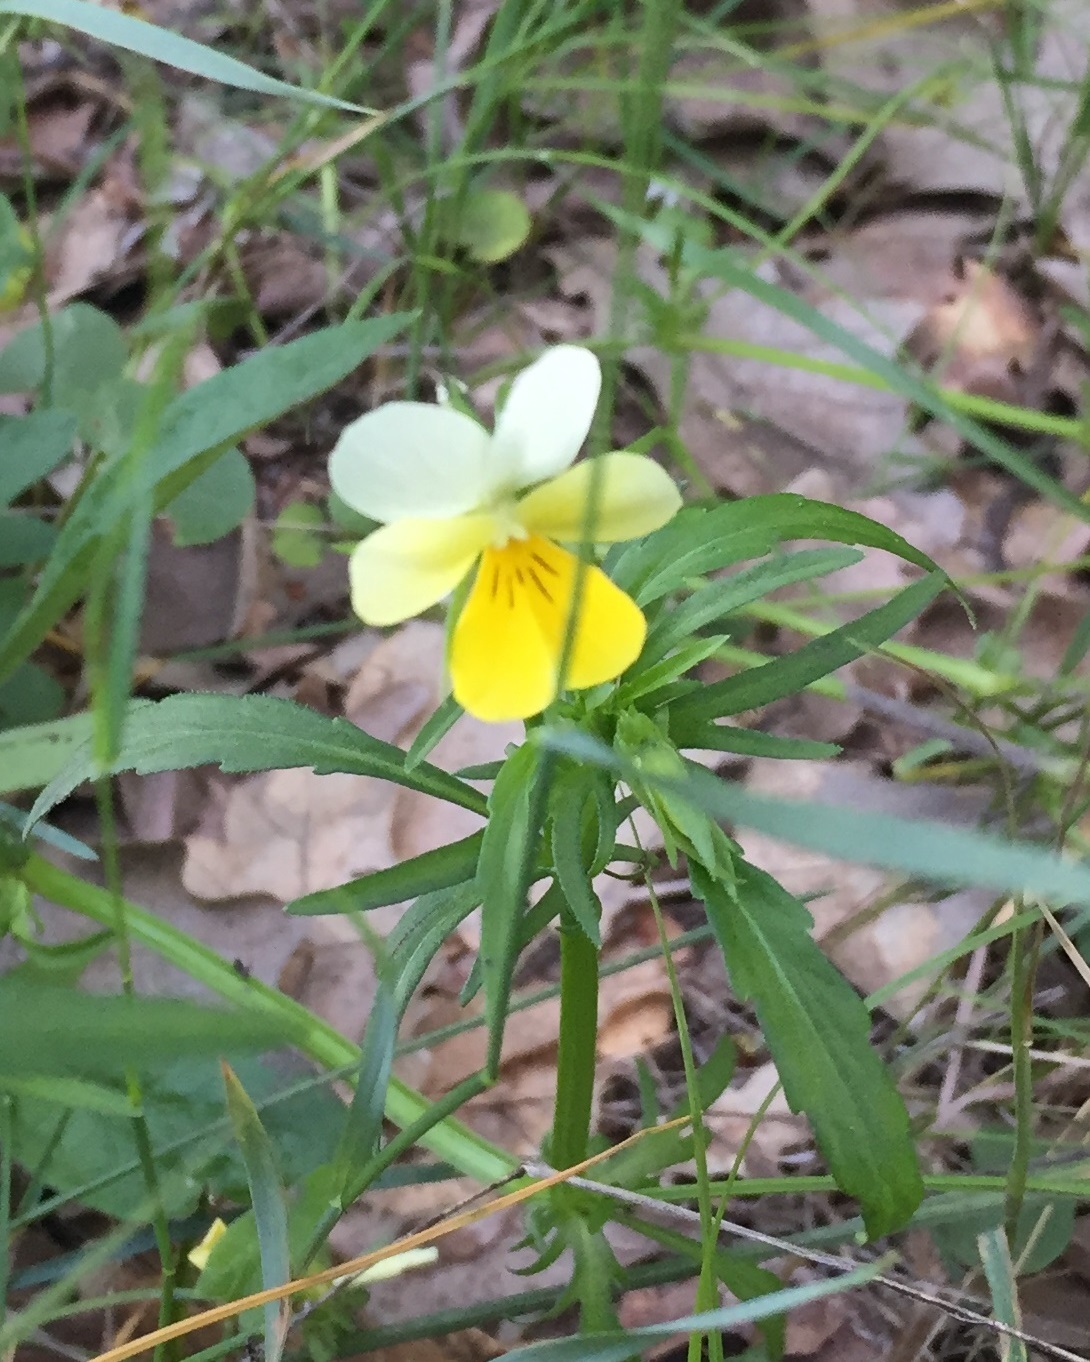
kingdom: Plantae
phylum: Tracheophyta
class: Magnoliopsida
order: Malpighiales
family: Violaceae
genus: Viola
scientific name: Viola arvensis
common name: Field pansy
